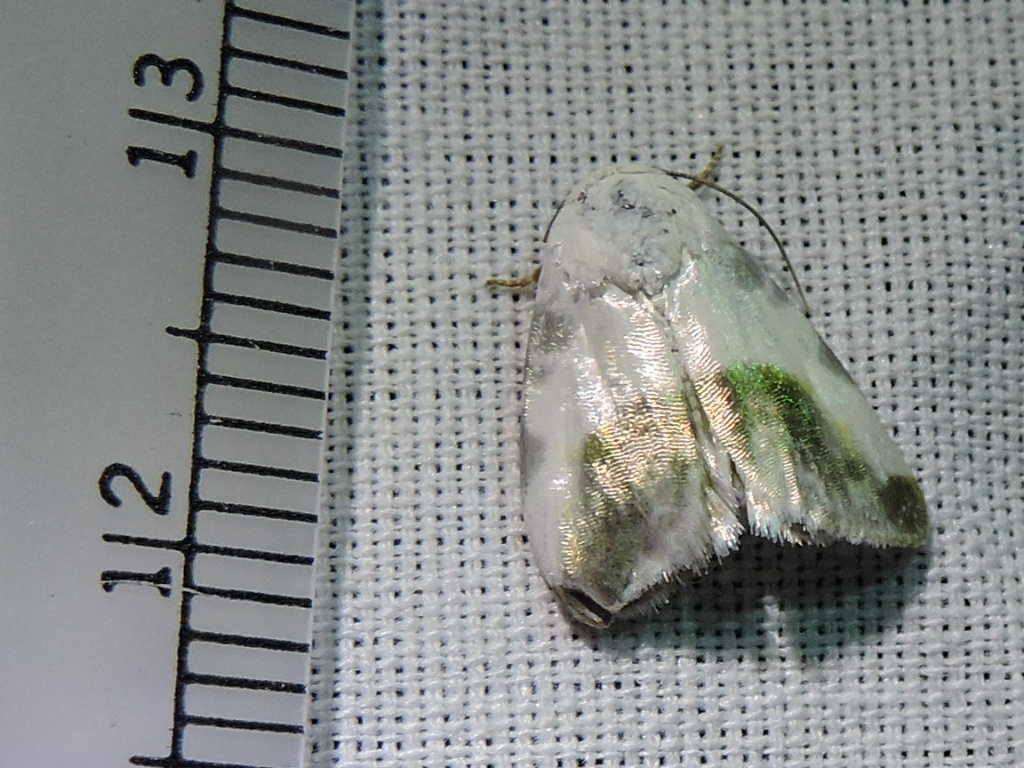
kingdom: Animalia
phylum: Arthropoda
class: Insecta
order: Lepidoptera
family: Noctuidae
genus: Acontia
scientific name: Acontia cretata
